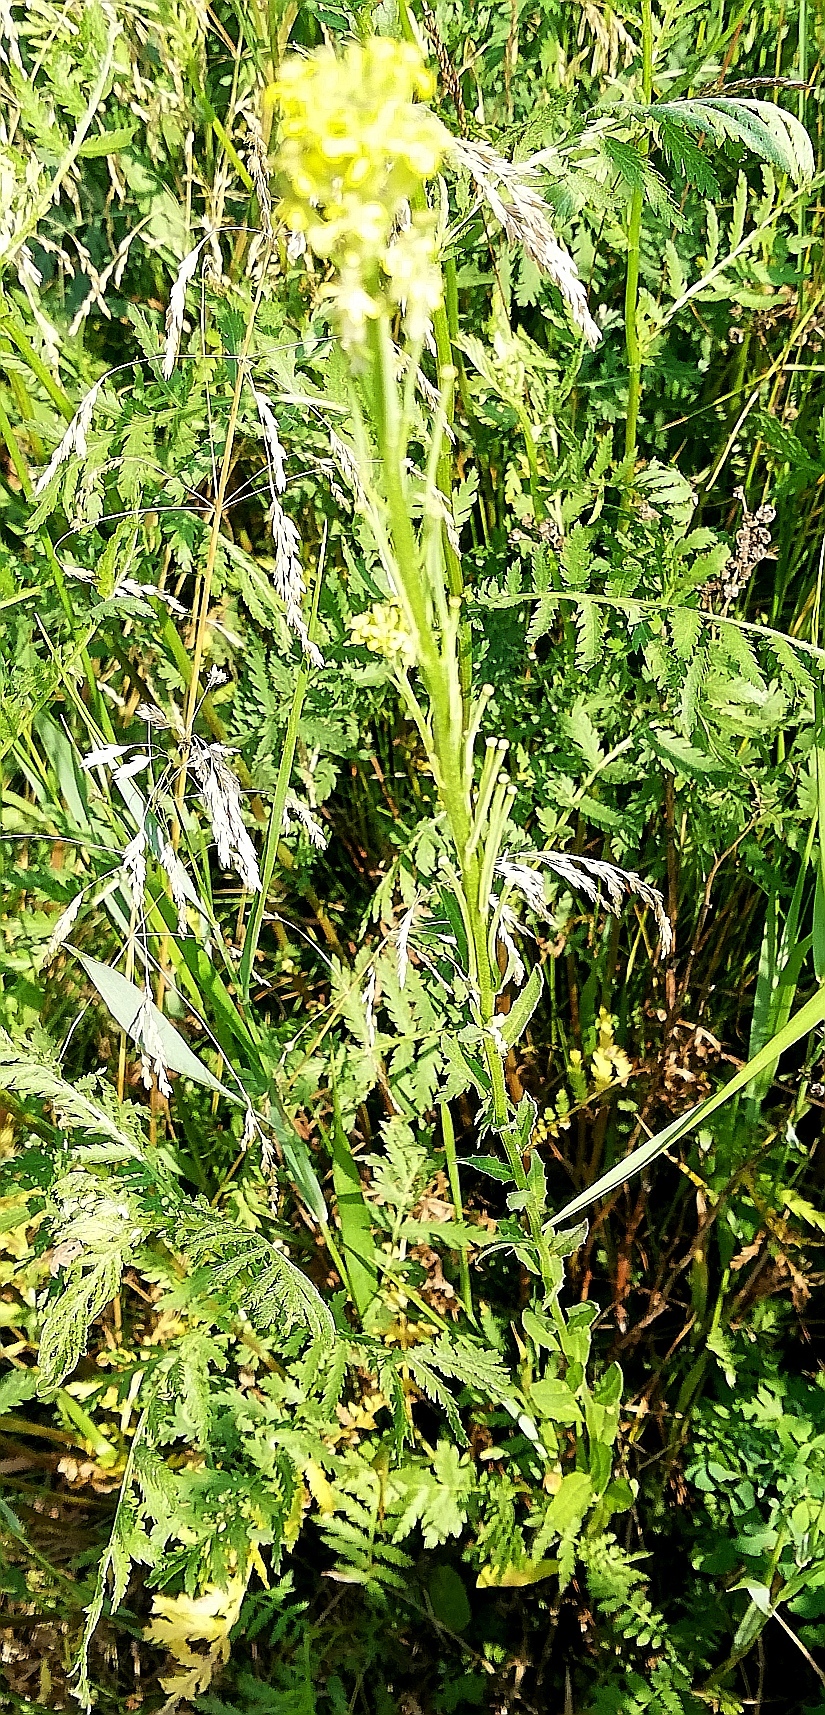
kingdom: Plantae
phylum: Tracheophyta
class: Magnoliopsida
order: Brassicales
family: Brassicaceae
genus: Erysimum
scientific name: Erysimum hieraciifolium
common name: European wallflower
